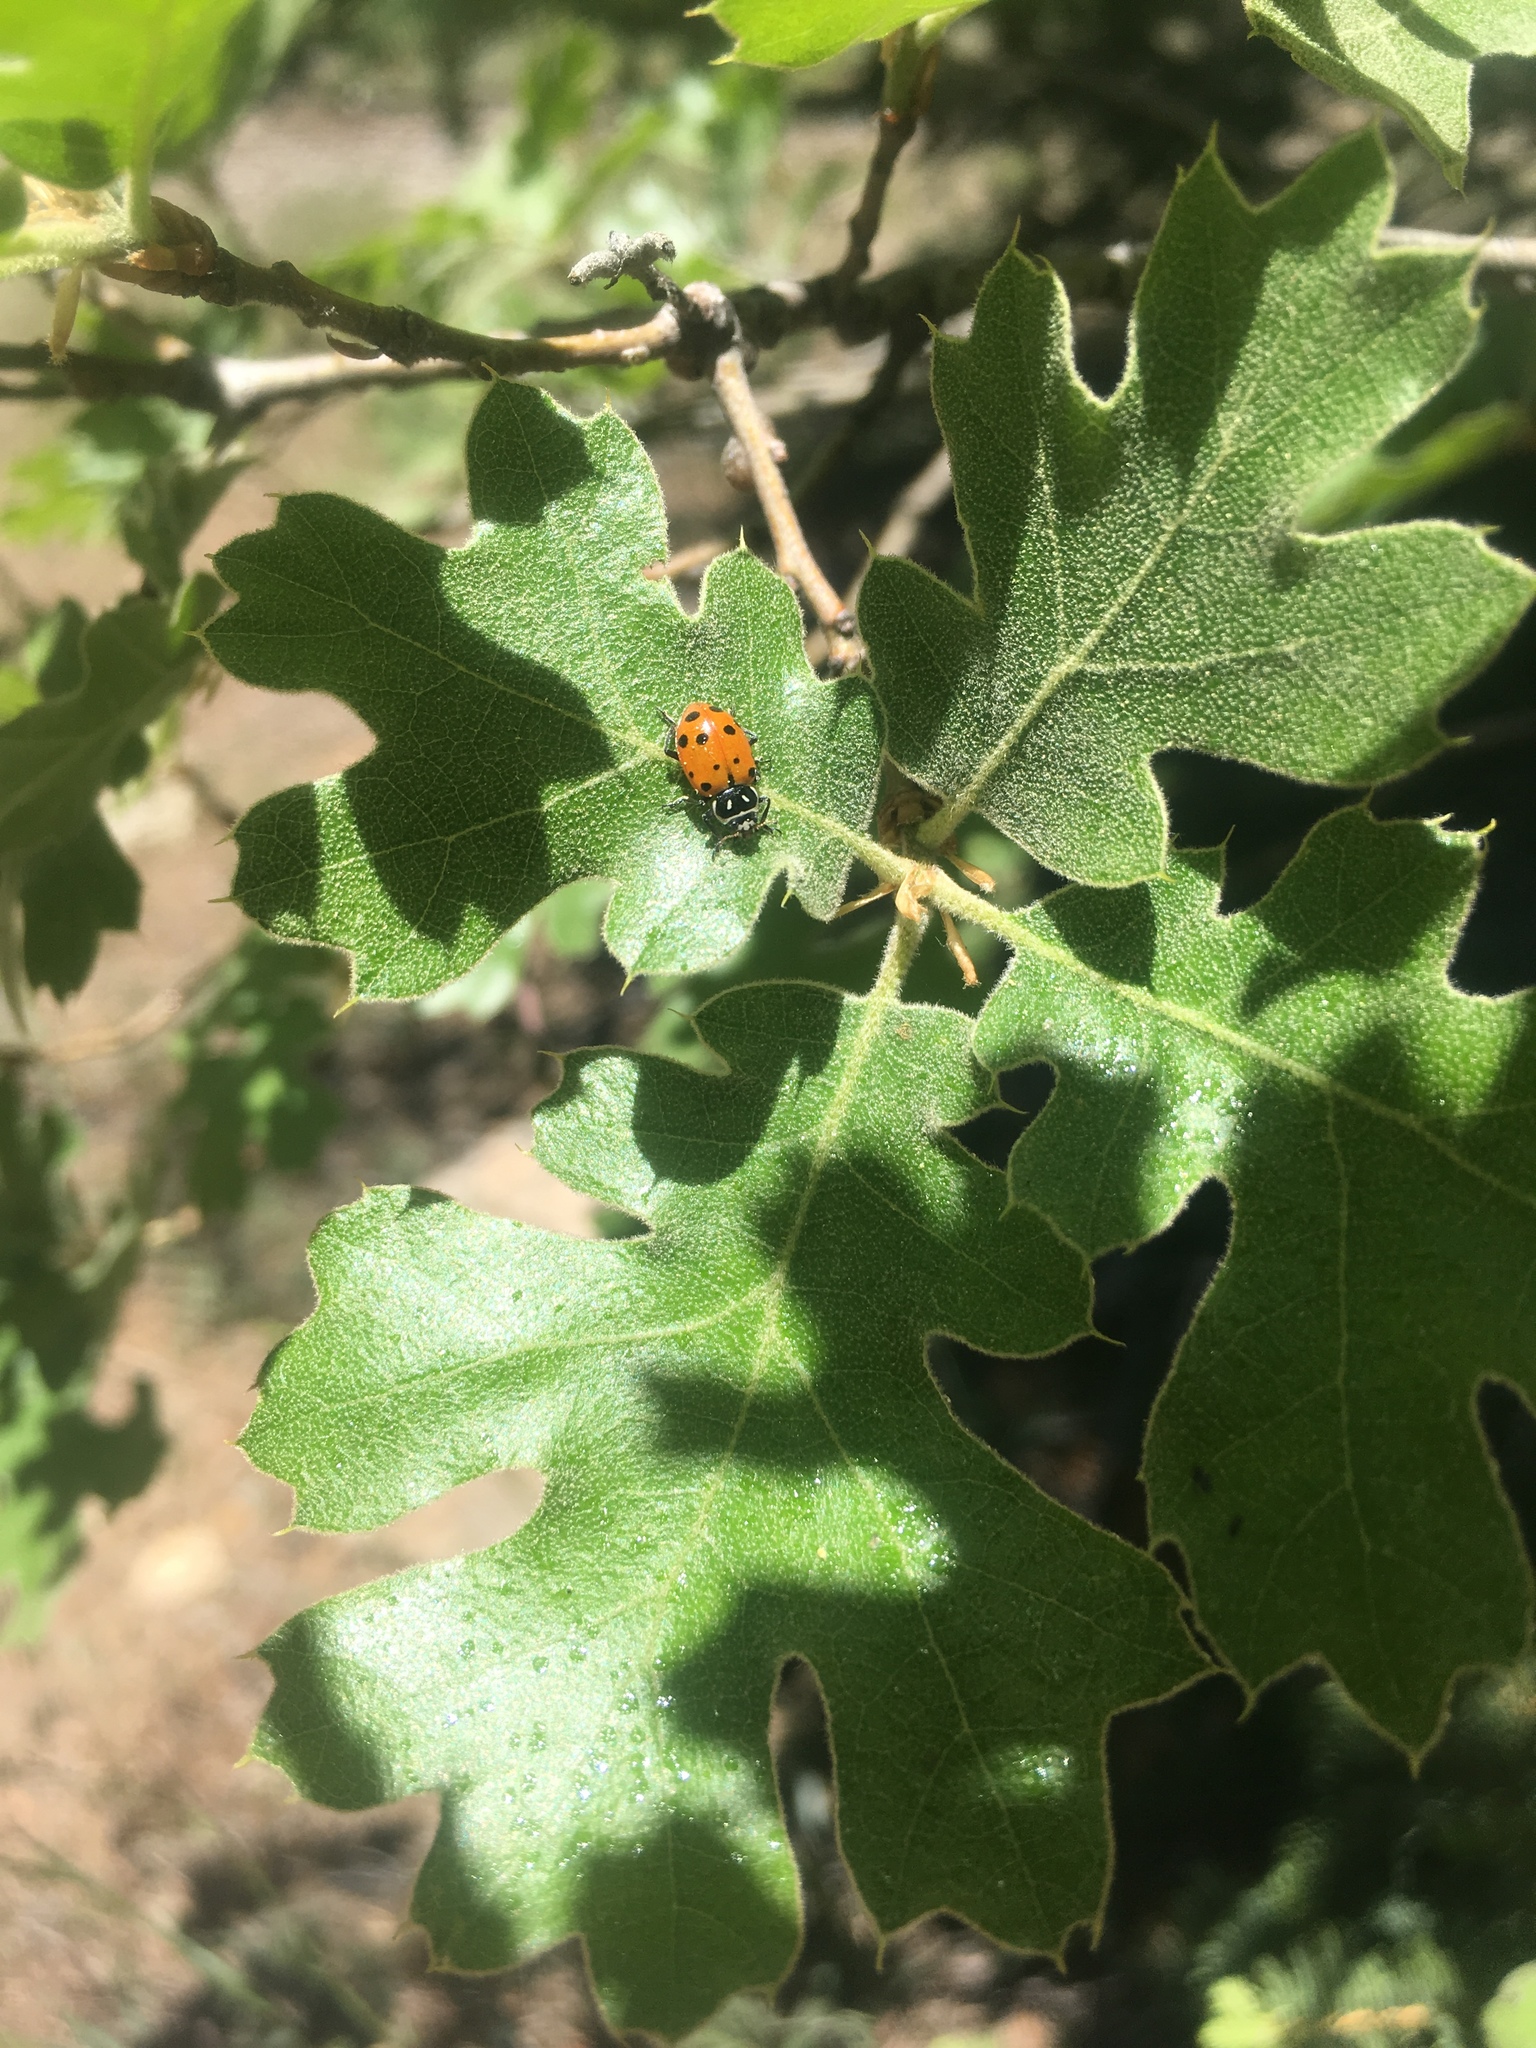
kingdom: Animalia
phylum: Arthropoda
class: Insecta
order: Coleoptera
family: Coccinellidae
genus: Hippodamia
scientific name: Hippodamia convergens
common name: Convergent lady beetle
